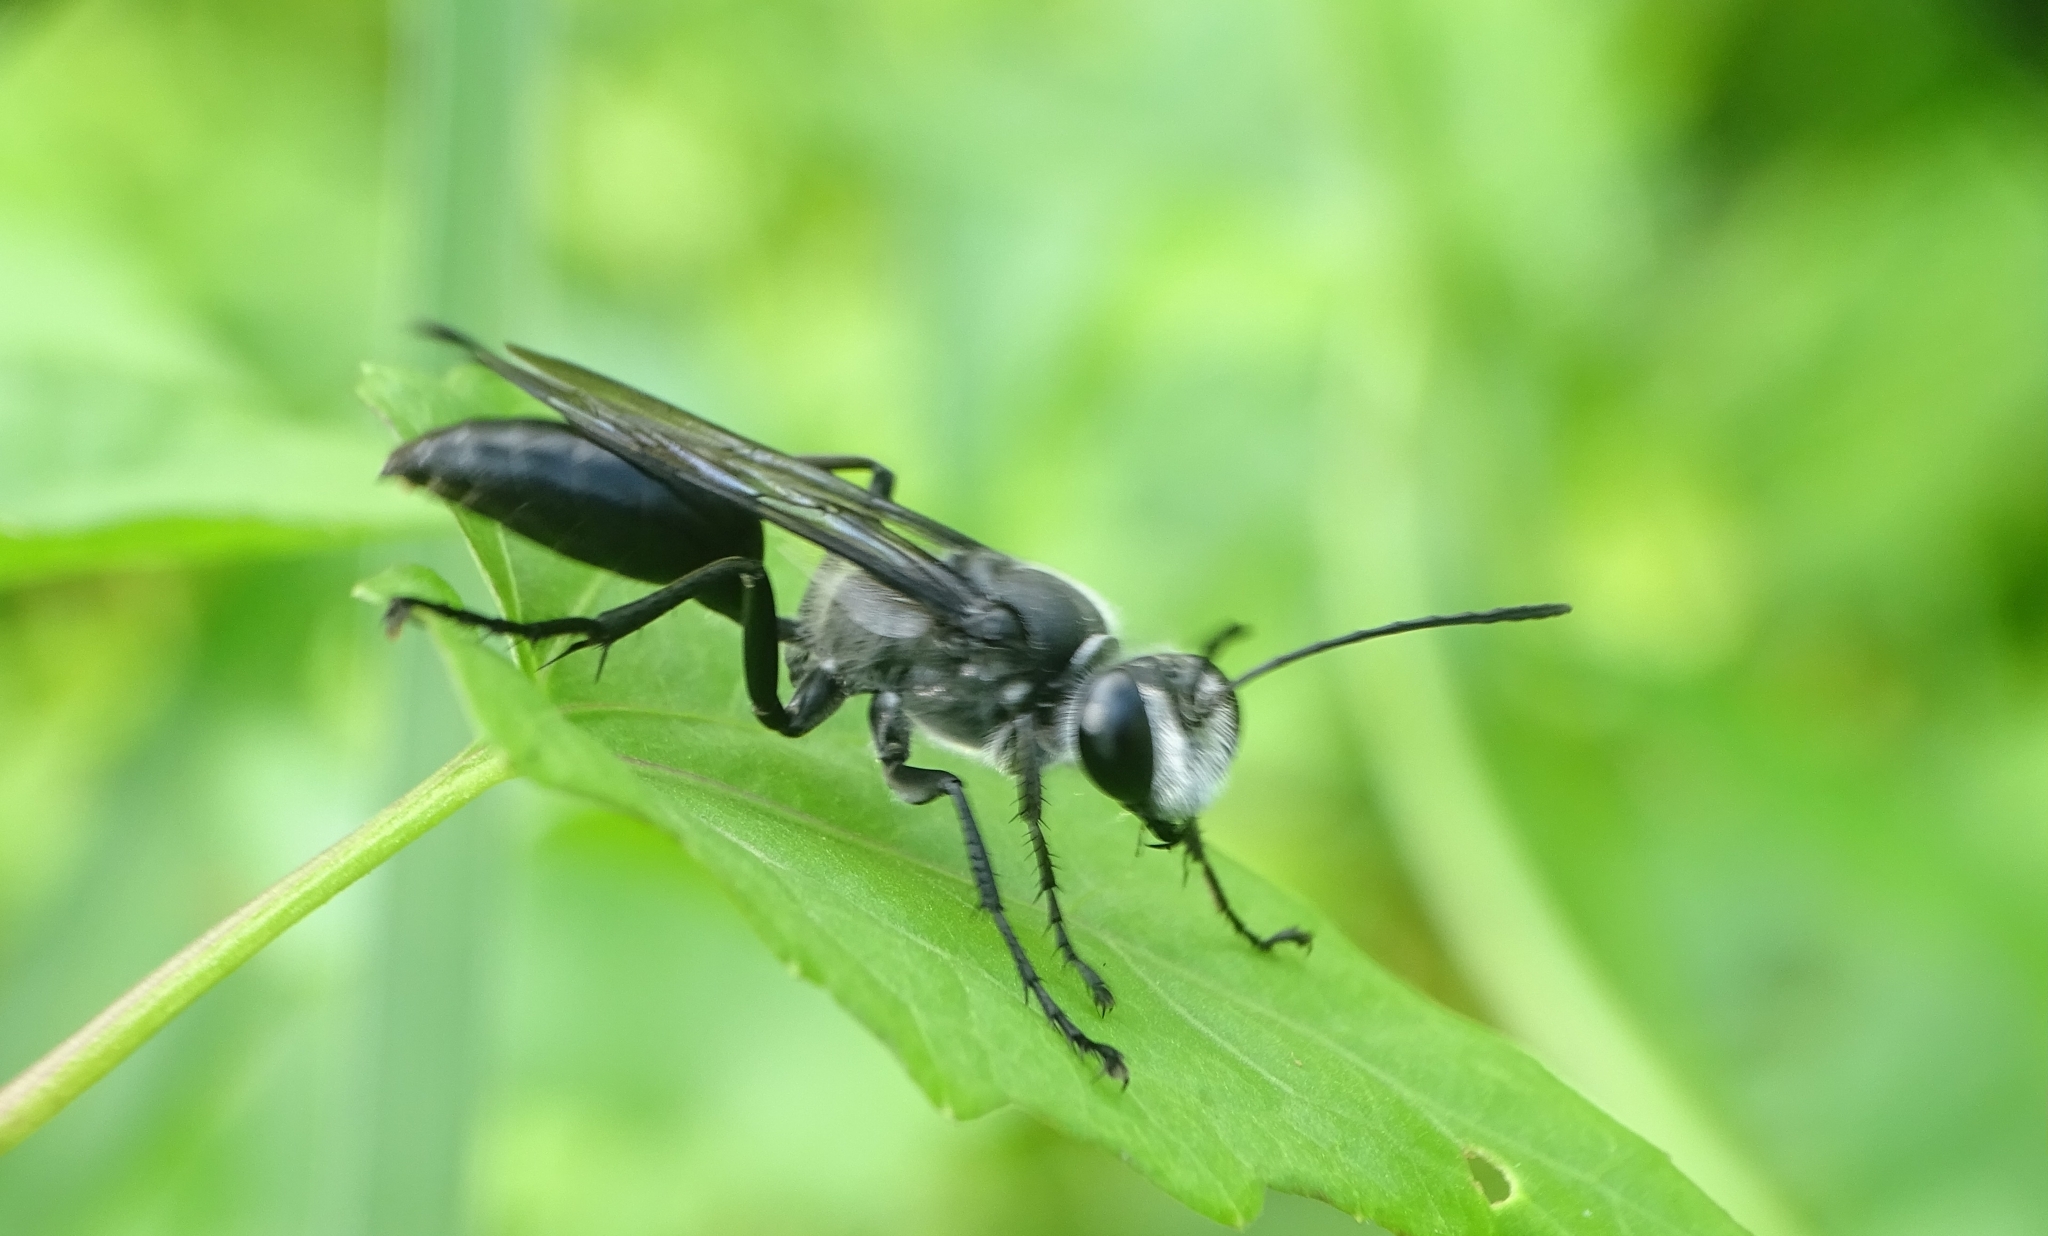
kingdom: Animalia
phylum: Arthropoda
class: Insecta
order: Hymenoptera
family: Sphecidae
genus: Sphex
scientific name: Sphex argentatus
